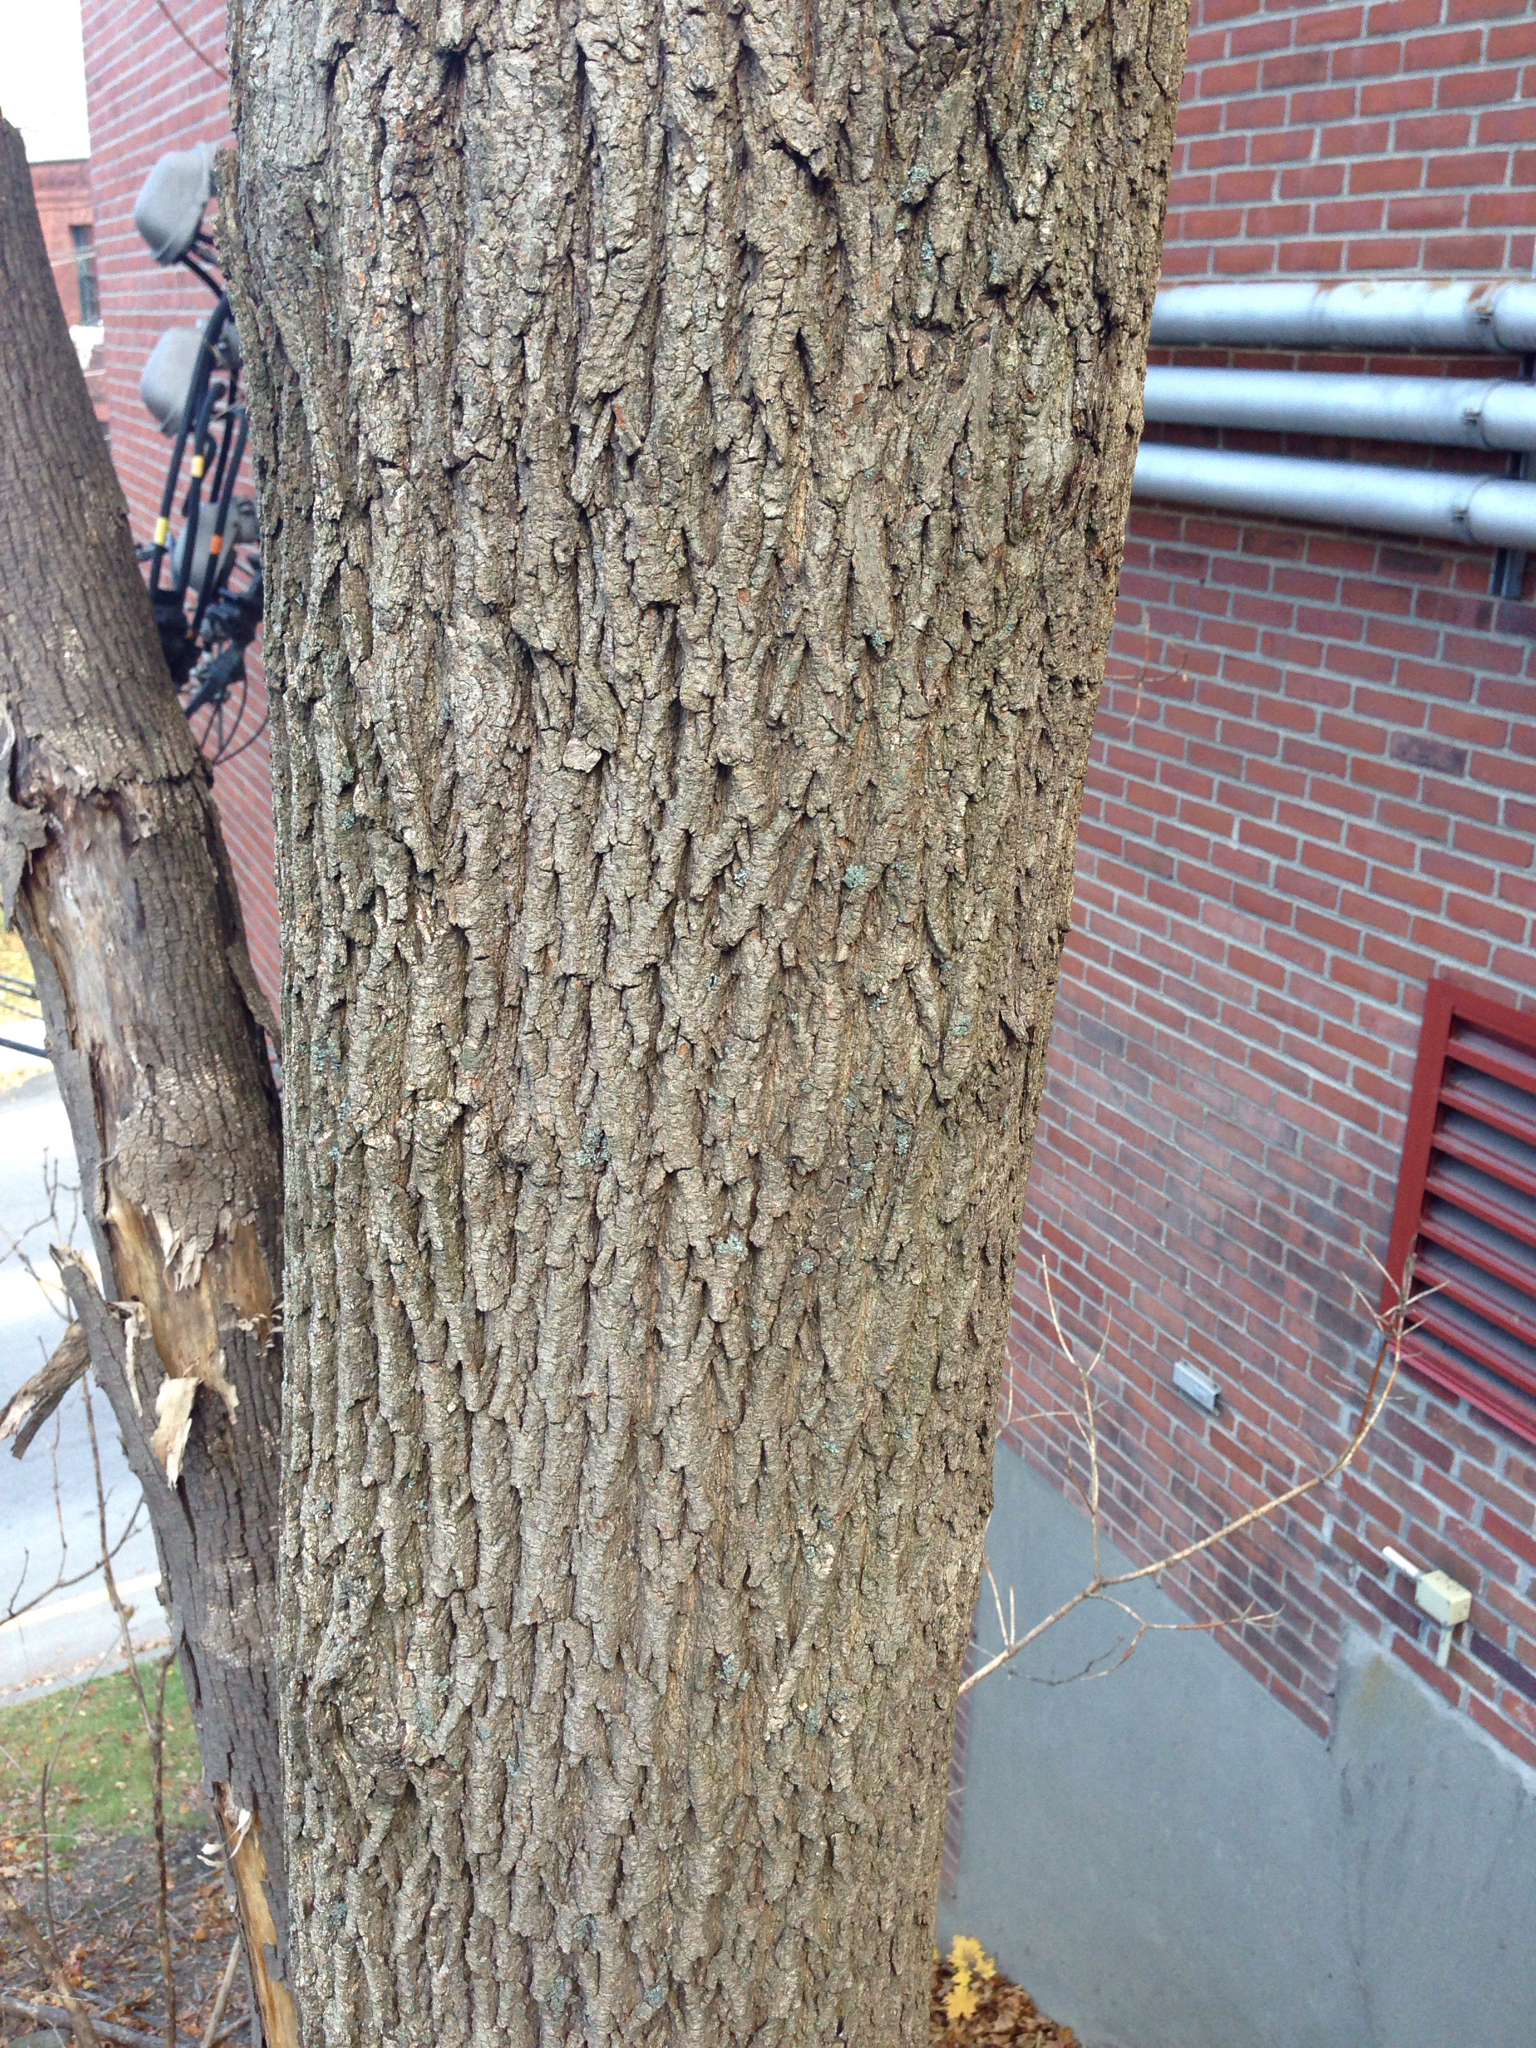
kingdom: Plantae
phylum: Tracheophyta
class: Magnoliopsida
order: Lamiales
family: Oleaceae
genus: Fraxinus
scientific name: Fraxinus americana
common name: White ash
